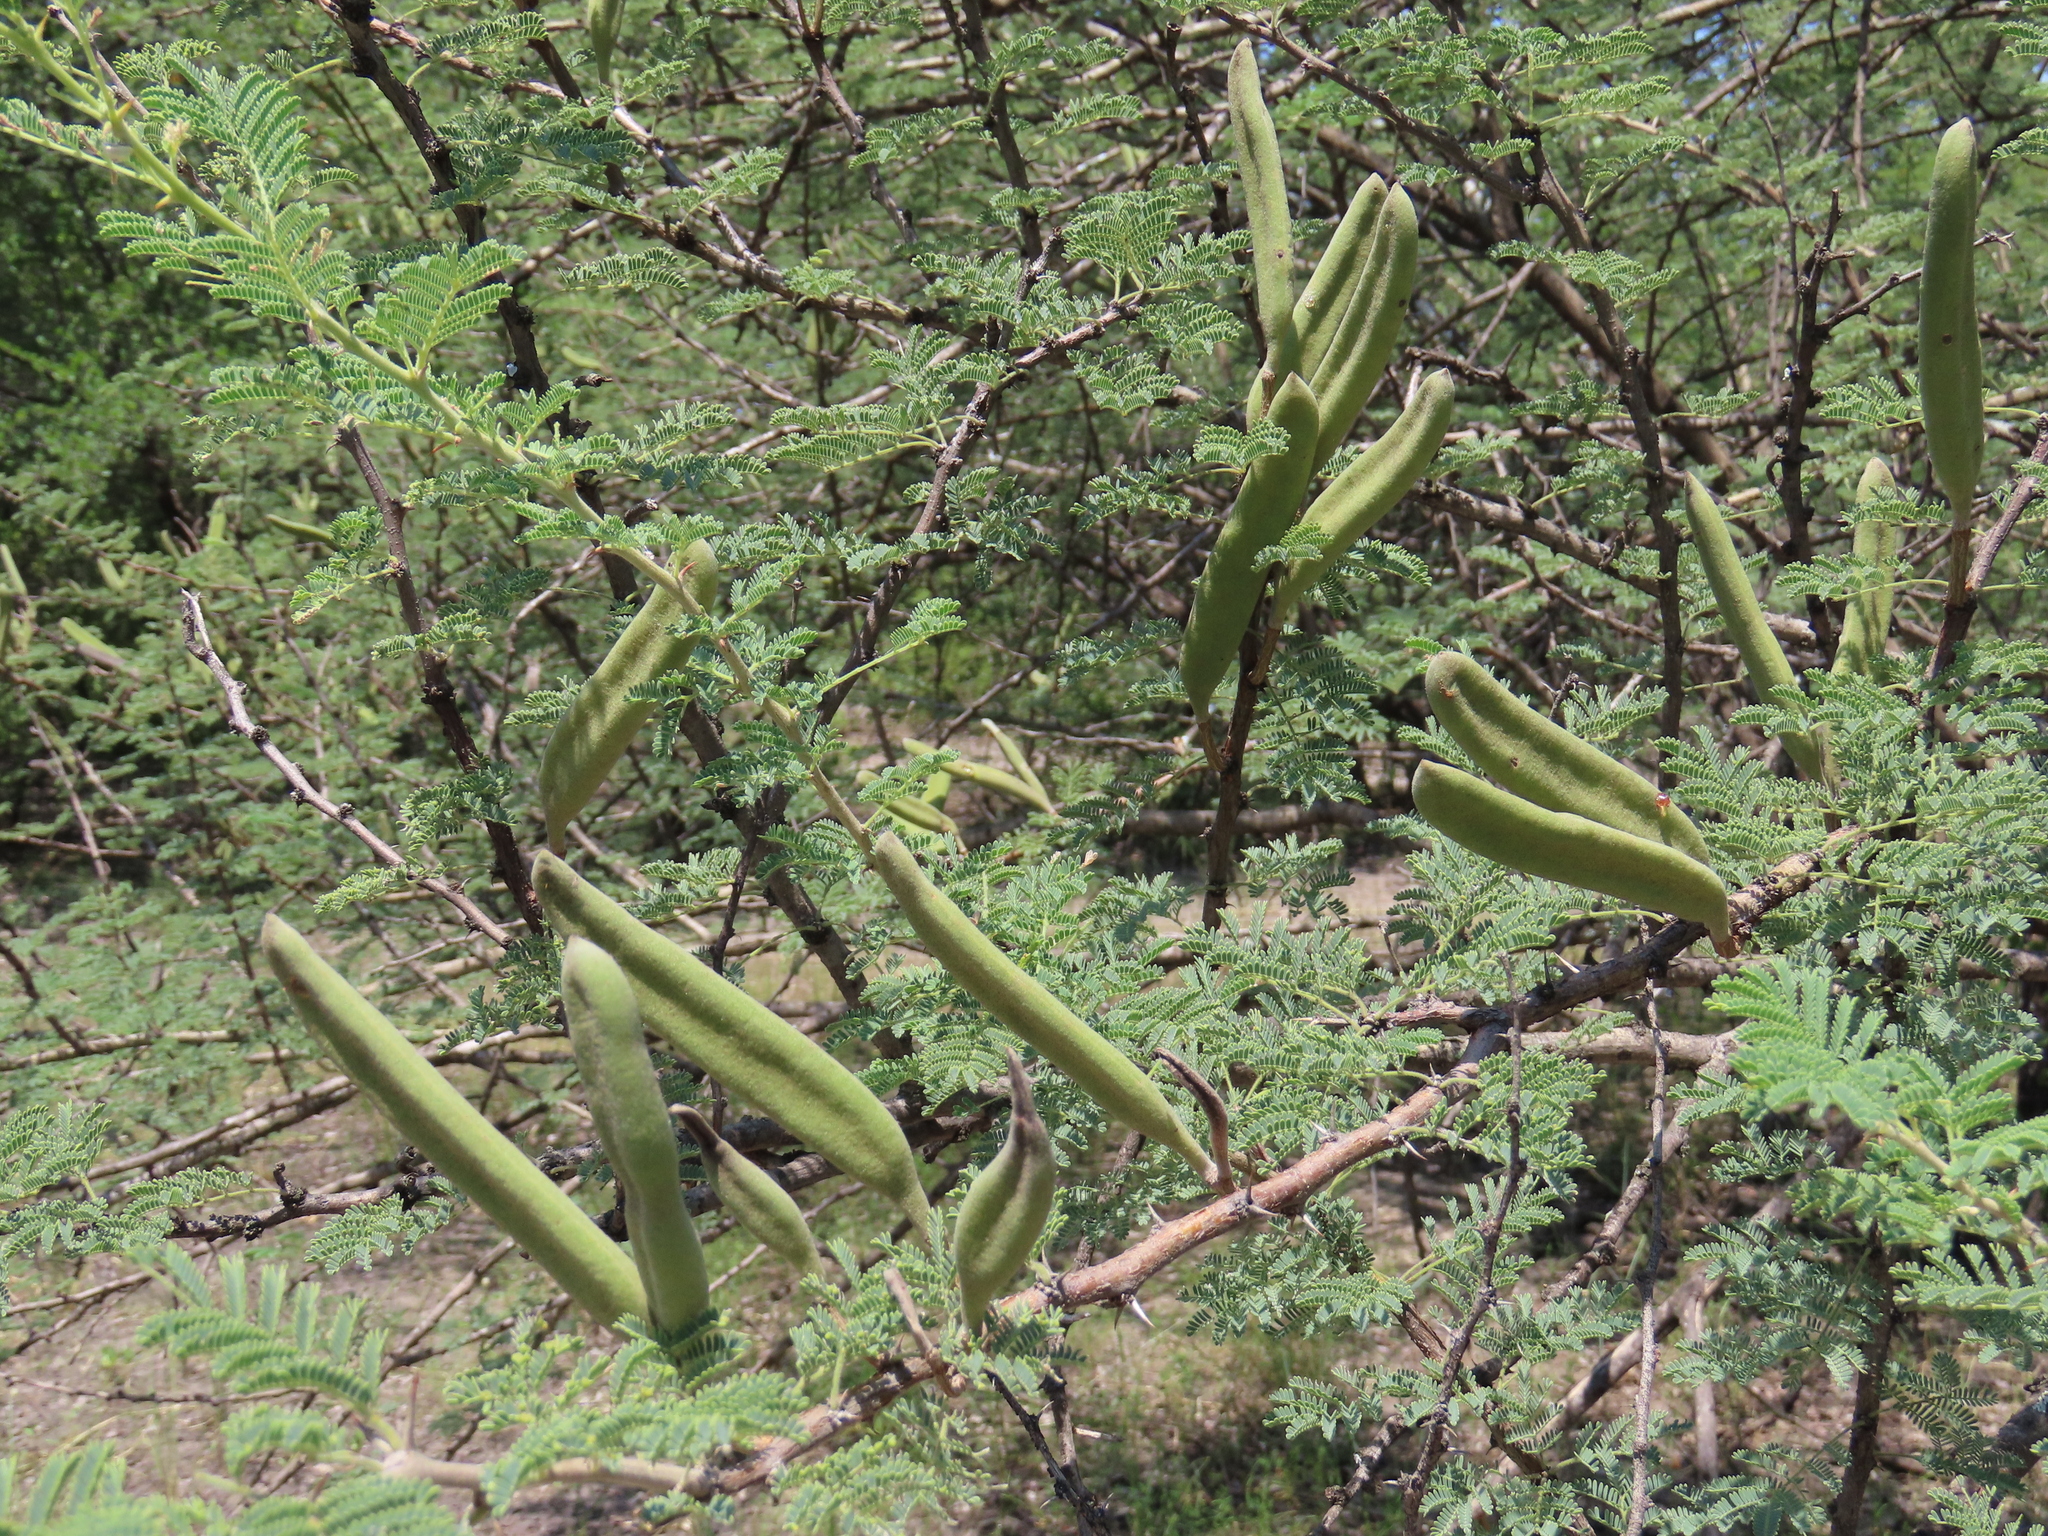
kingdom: Plantae
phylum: Tracheophyta
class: Magnoliopsida
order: Fabales
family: Fabaceae
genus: Vachellia
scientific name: Vachellia hebeclada
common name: Candle thorn
